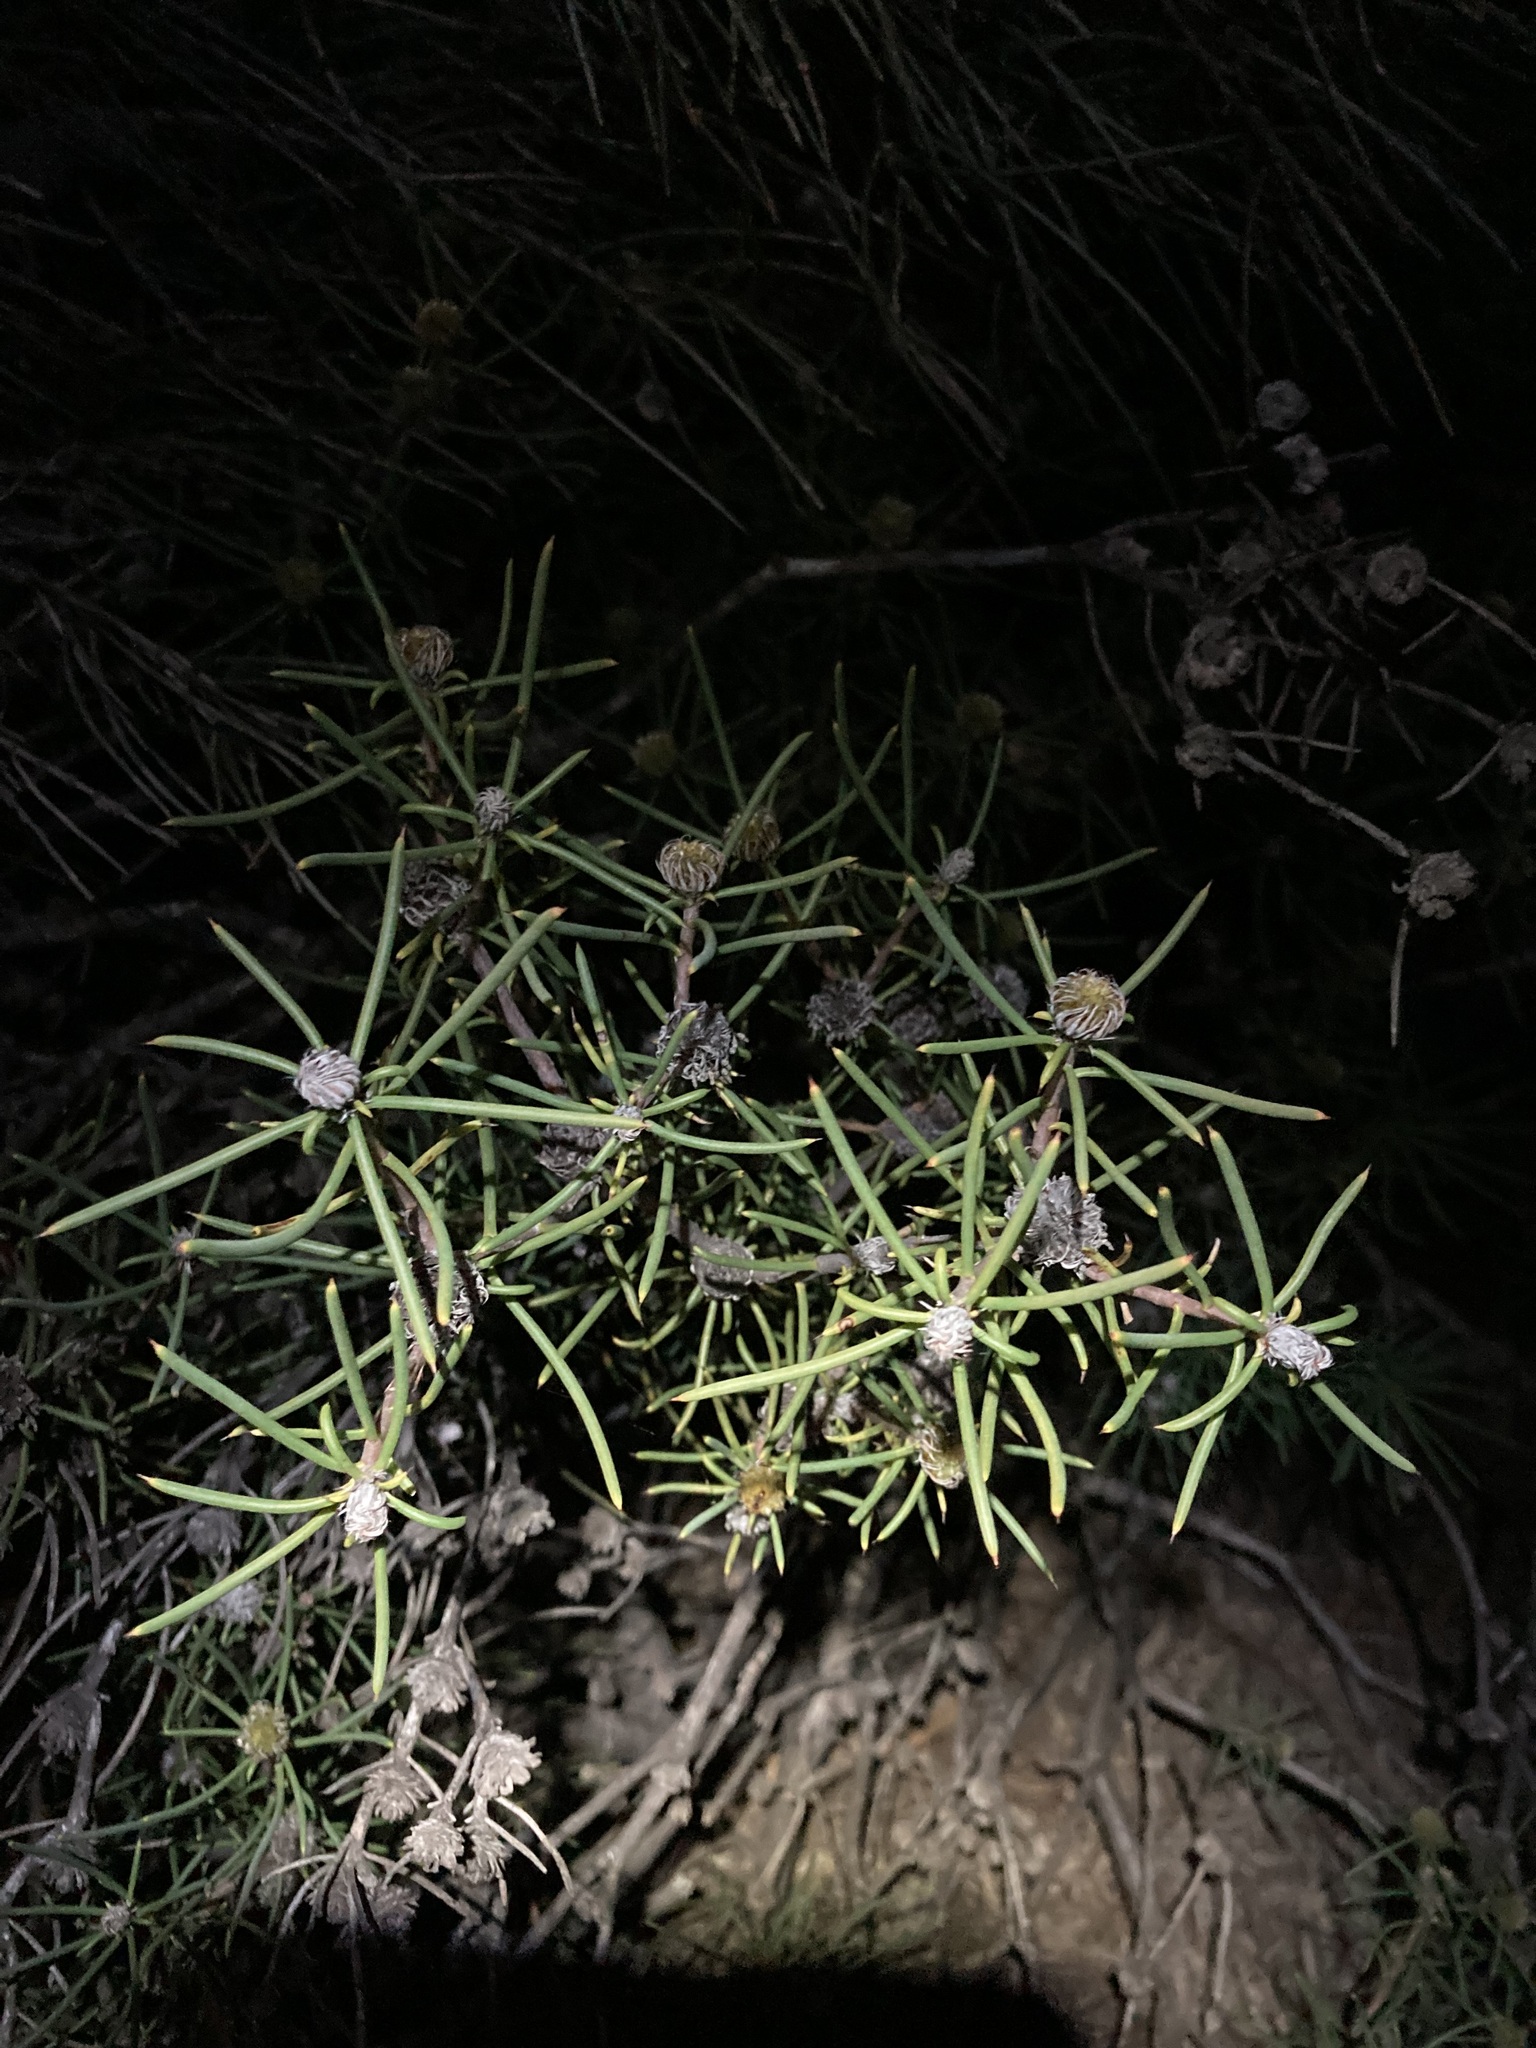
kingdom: Plantae
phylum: Tracheophyta
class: Magnoliopsida
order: Proteales
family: Proteaceae
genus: Petrophile
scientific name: Petrophile pilostyla
